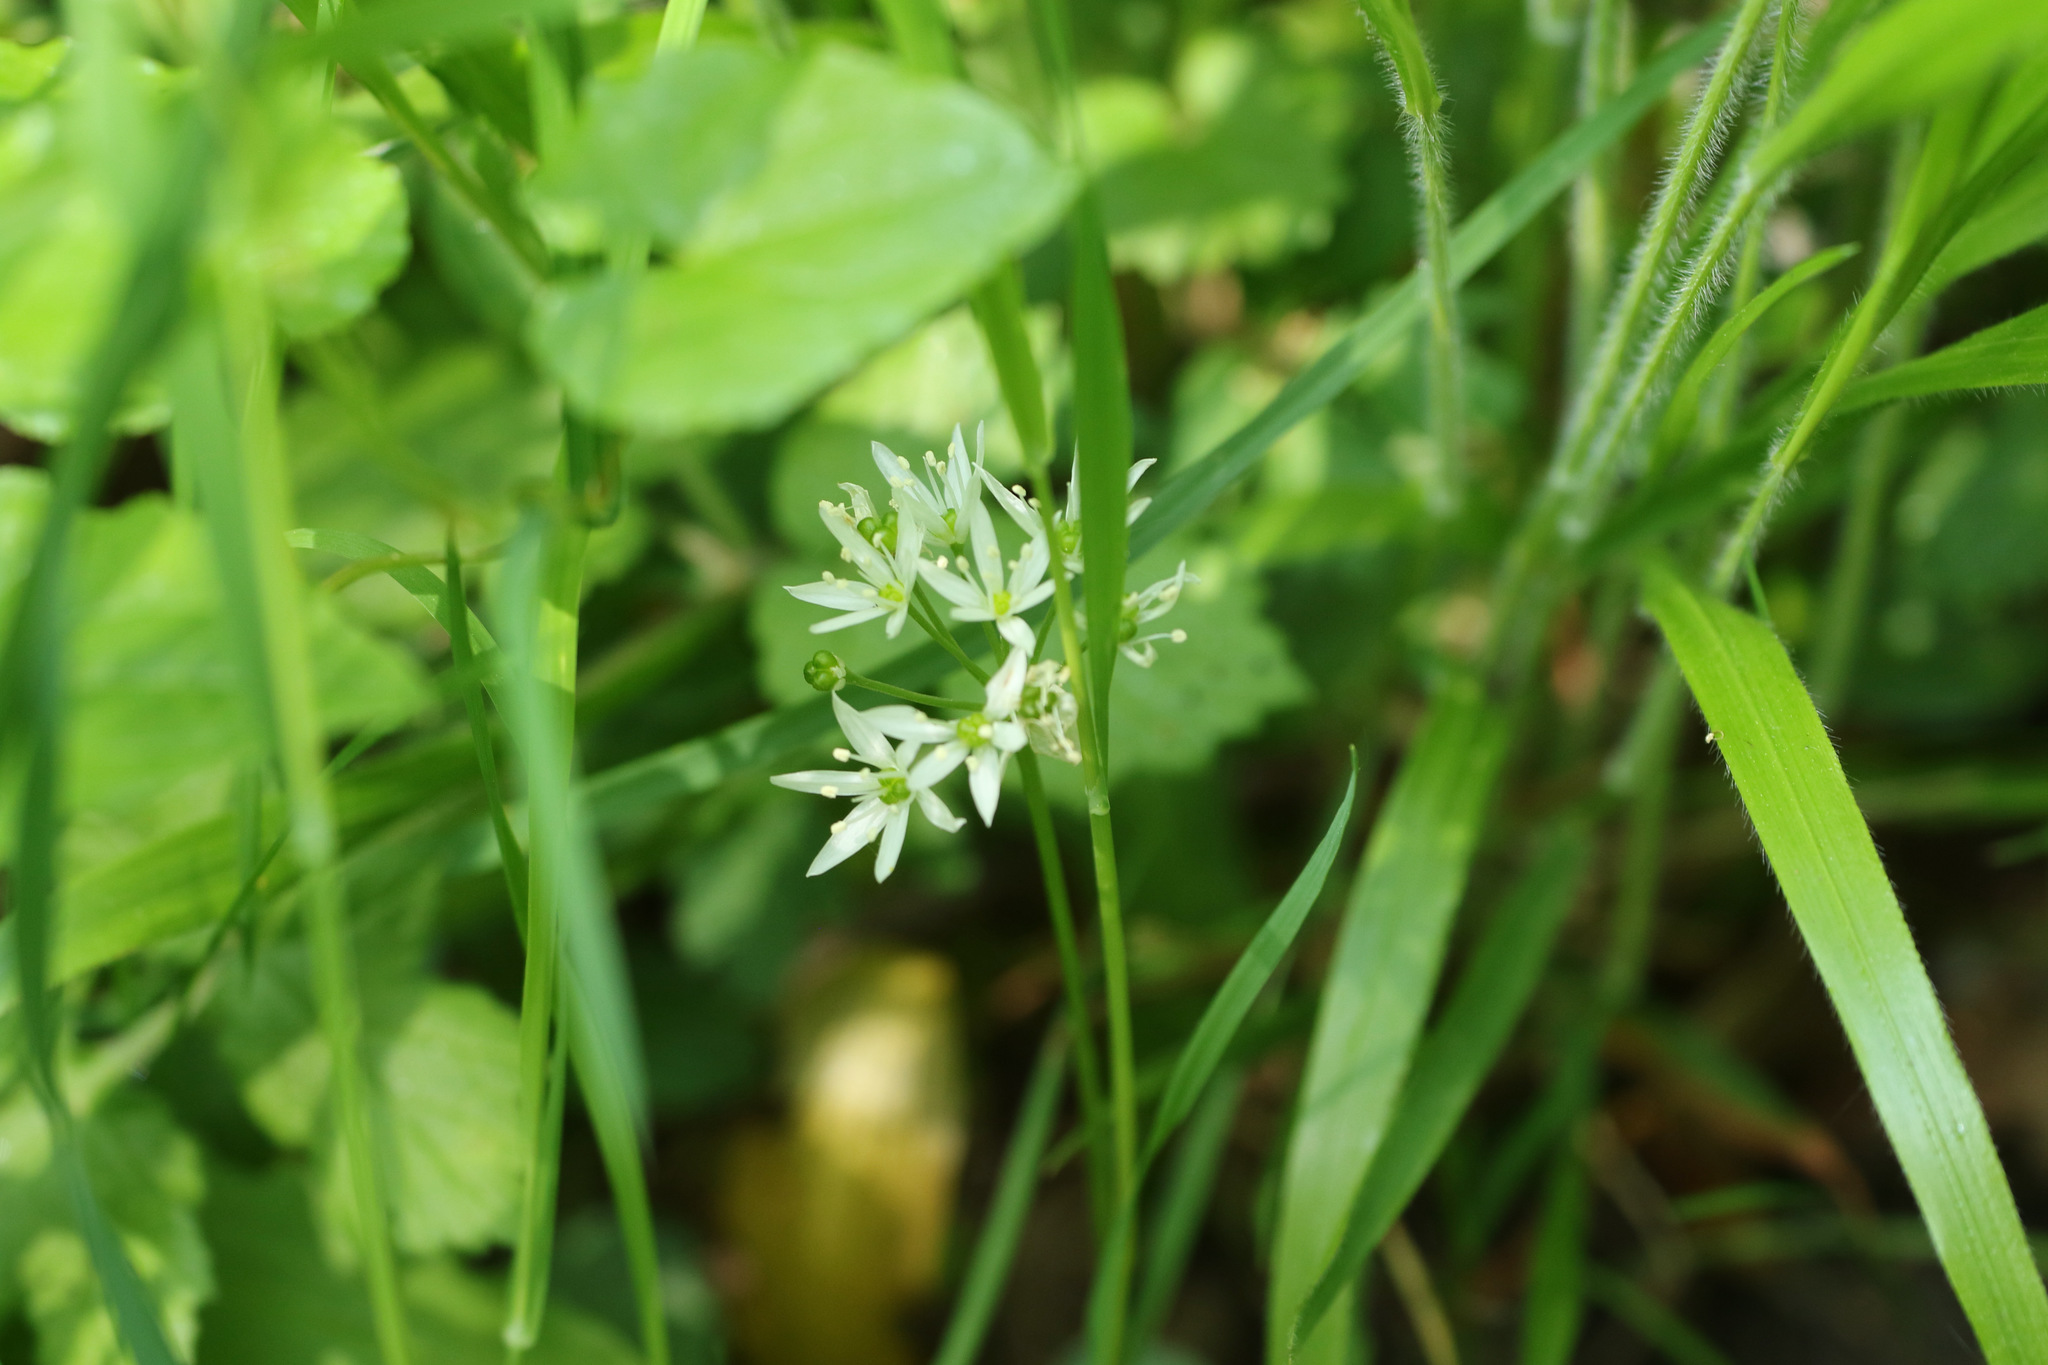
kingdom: Plantae
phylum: Tracheophyta
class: Liliopsida
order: Asparagales
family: Amaryllidaceae
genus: Allium
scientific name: Allium ursinum
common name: Ramsons
